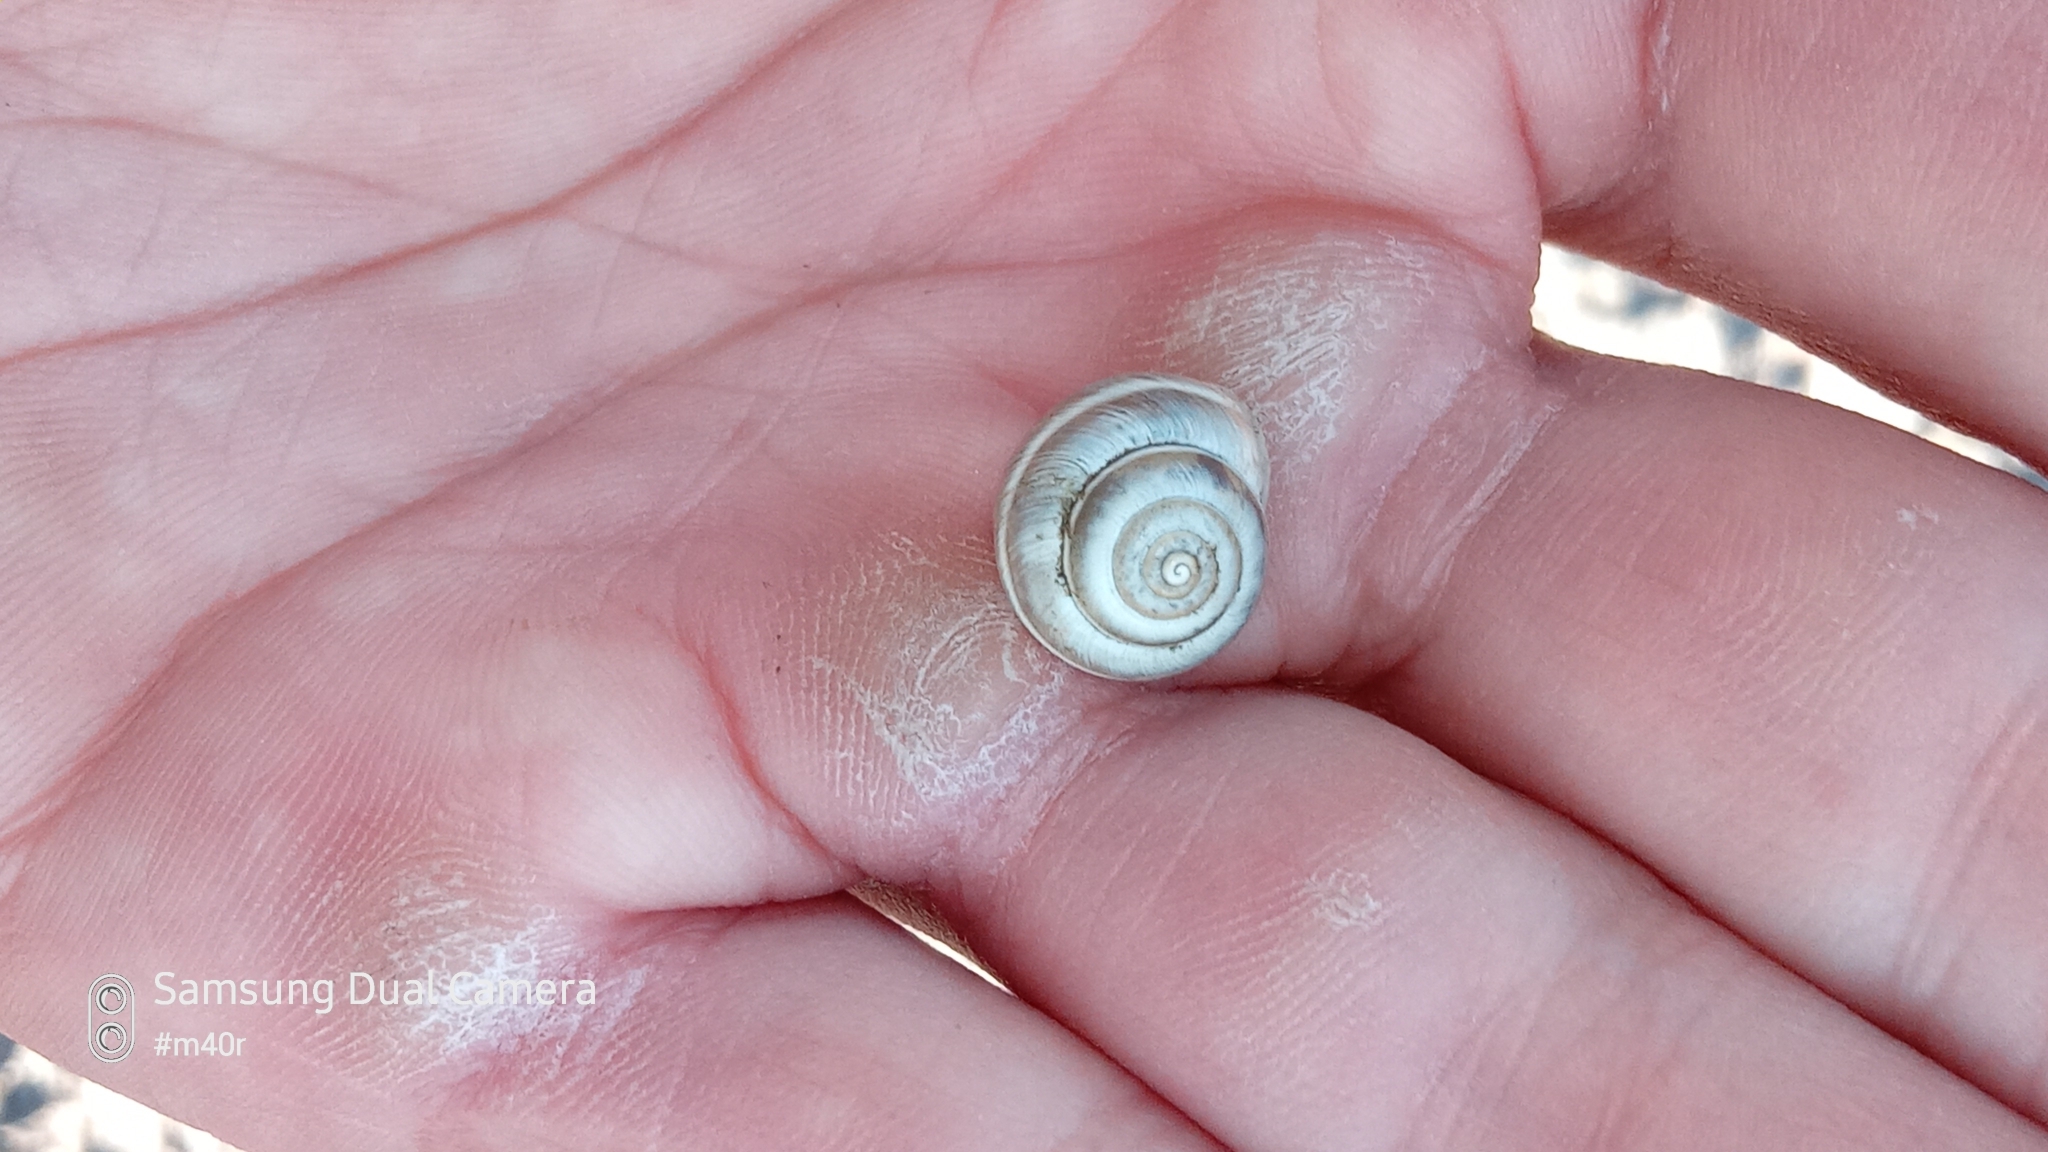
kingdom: Animalia
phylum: Mollusca
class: Gastropoda
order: Stylommatophora
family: Hygromiidae
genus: Harmozica
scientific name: Harmozica ravergiensis
